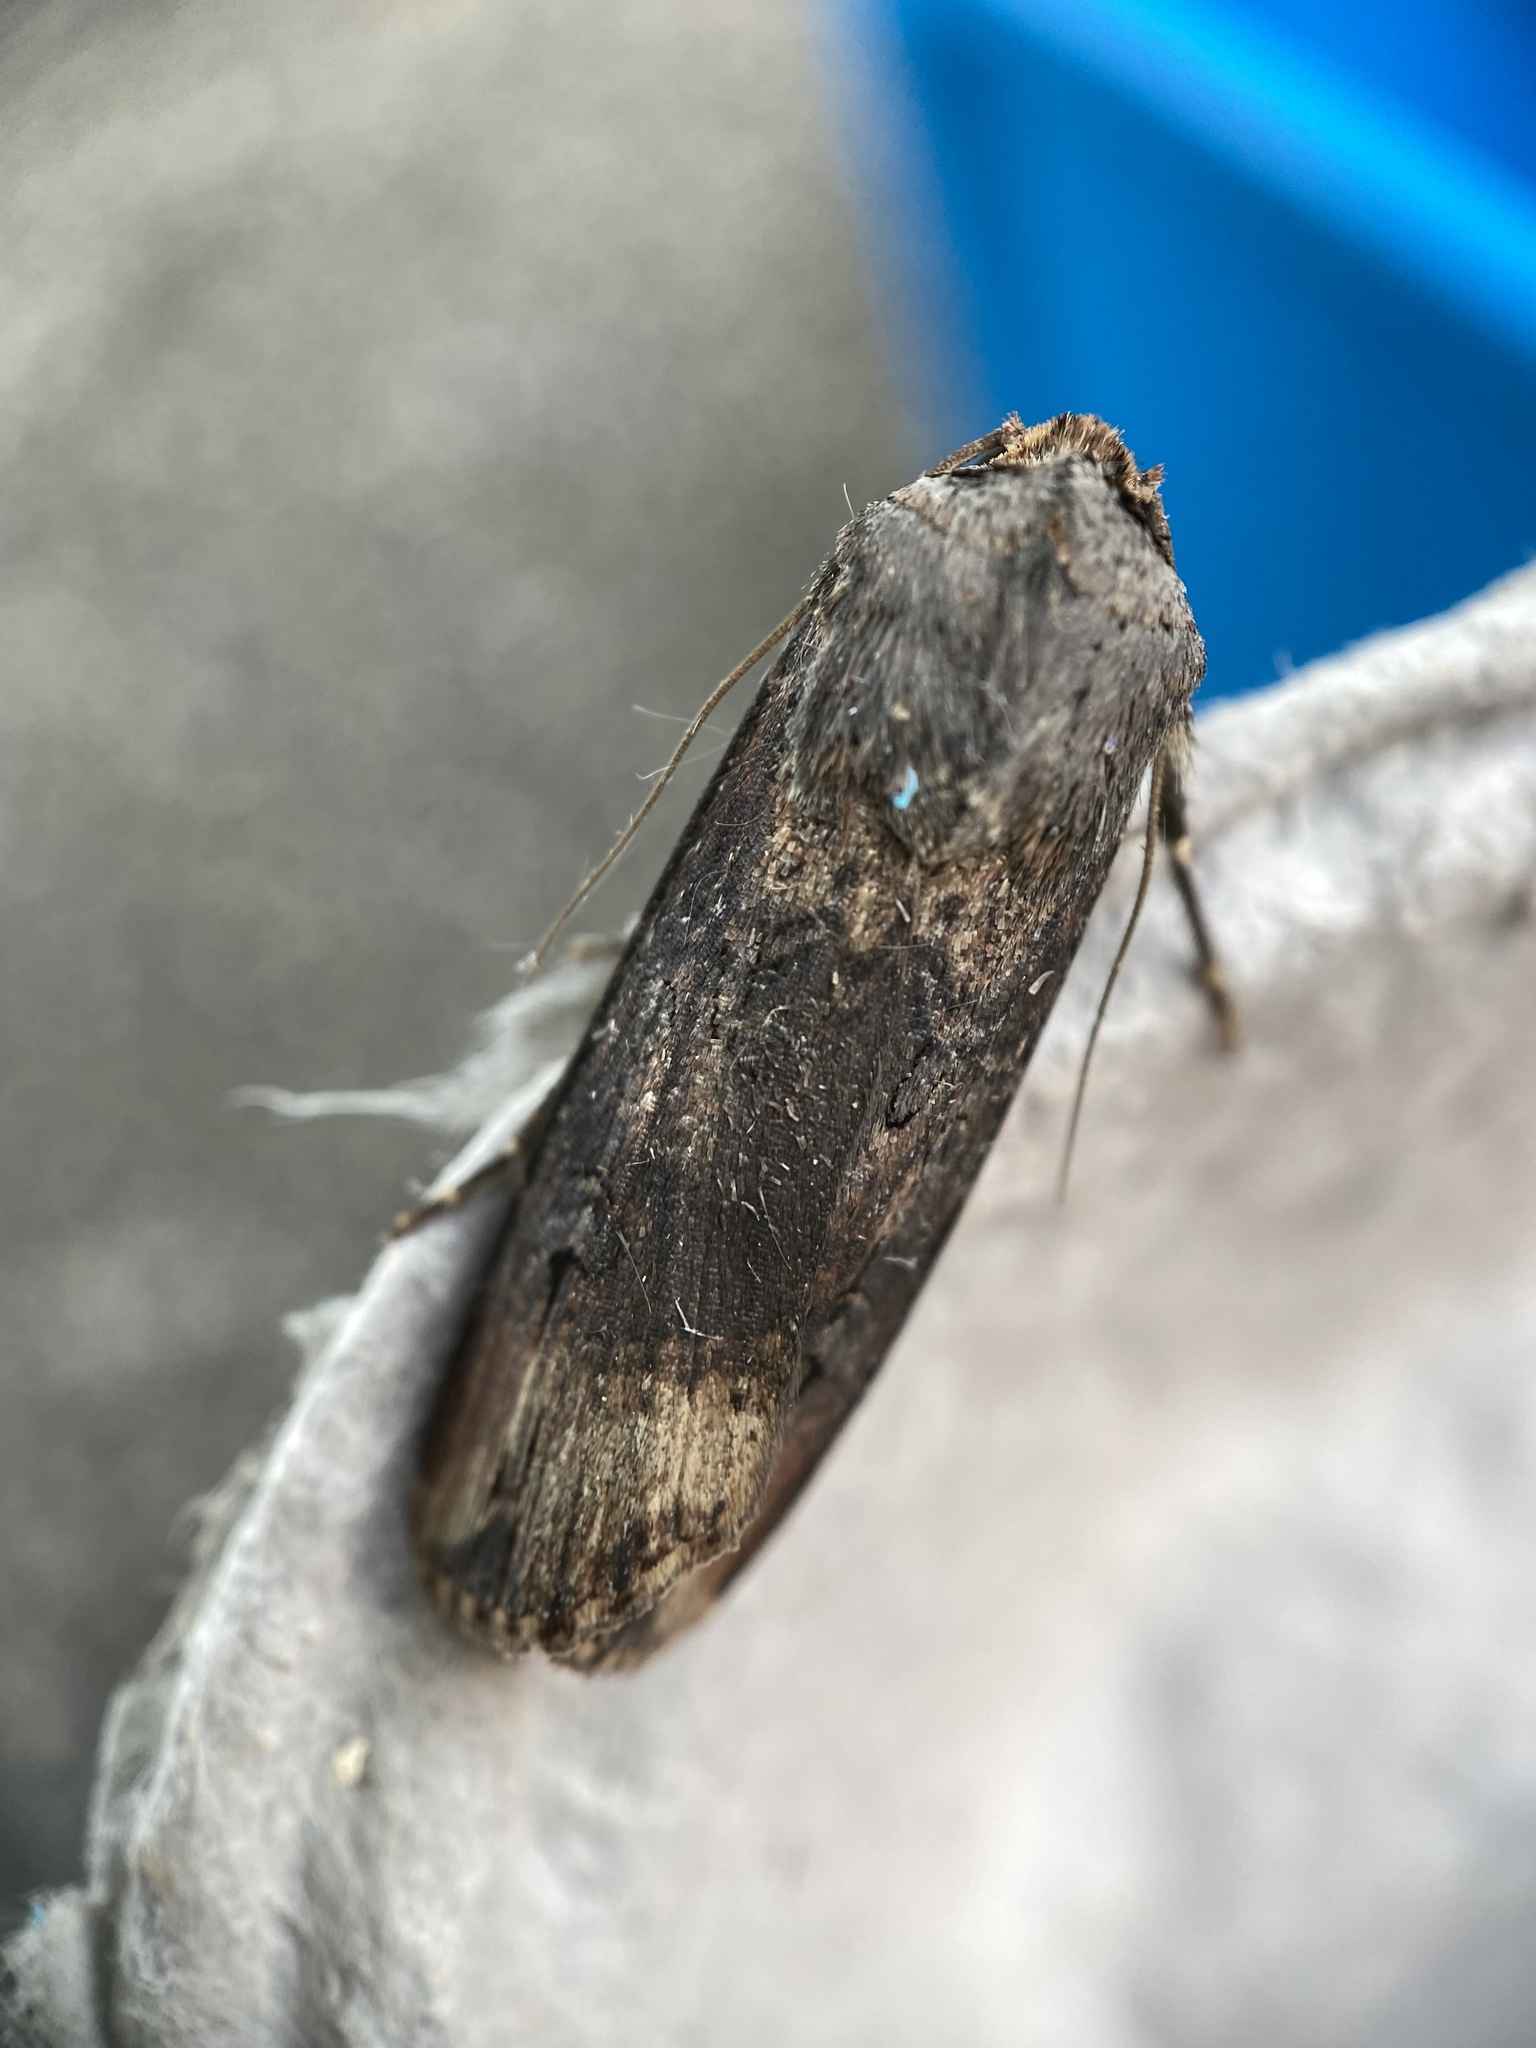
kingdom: Animalia
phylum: Arthropoda
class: Insecta
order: Lepidoptera
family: Noctuidae
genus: Agrotis
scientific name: Agrotis ipsilon
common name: Dark sword-grass
